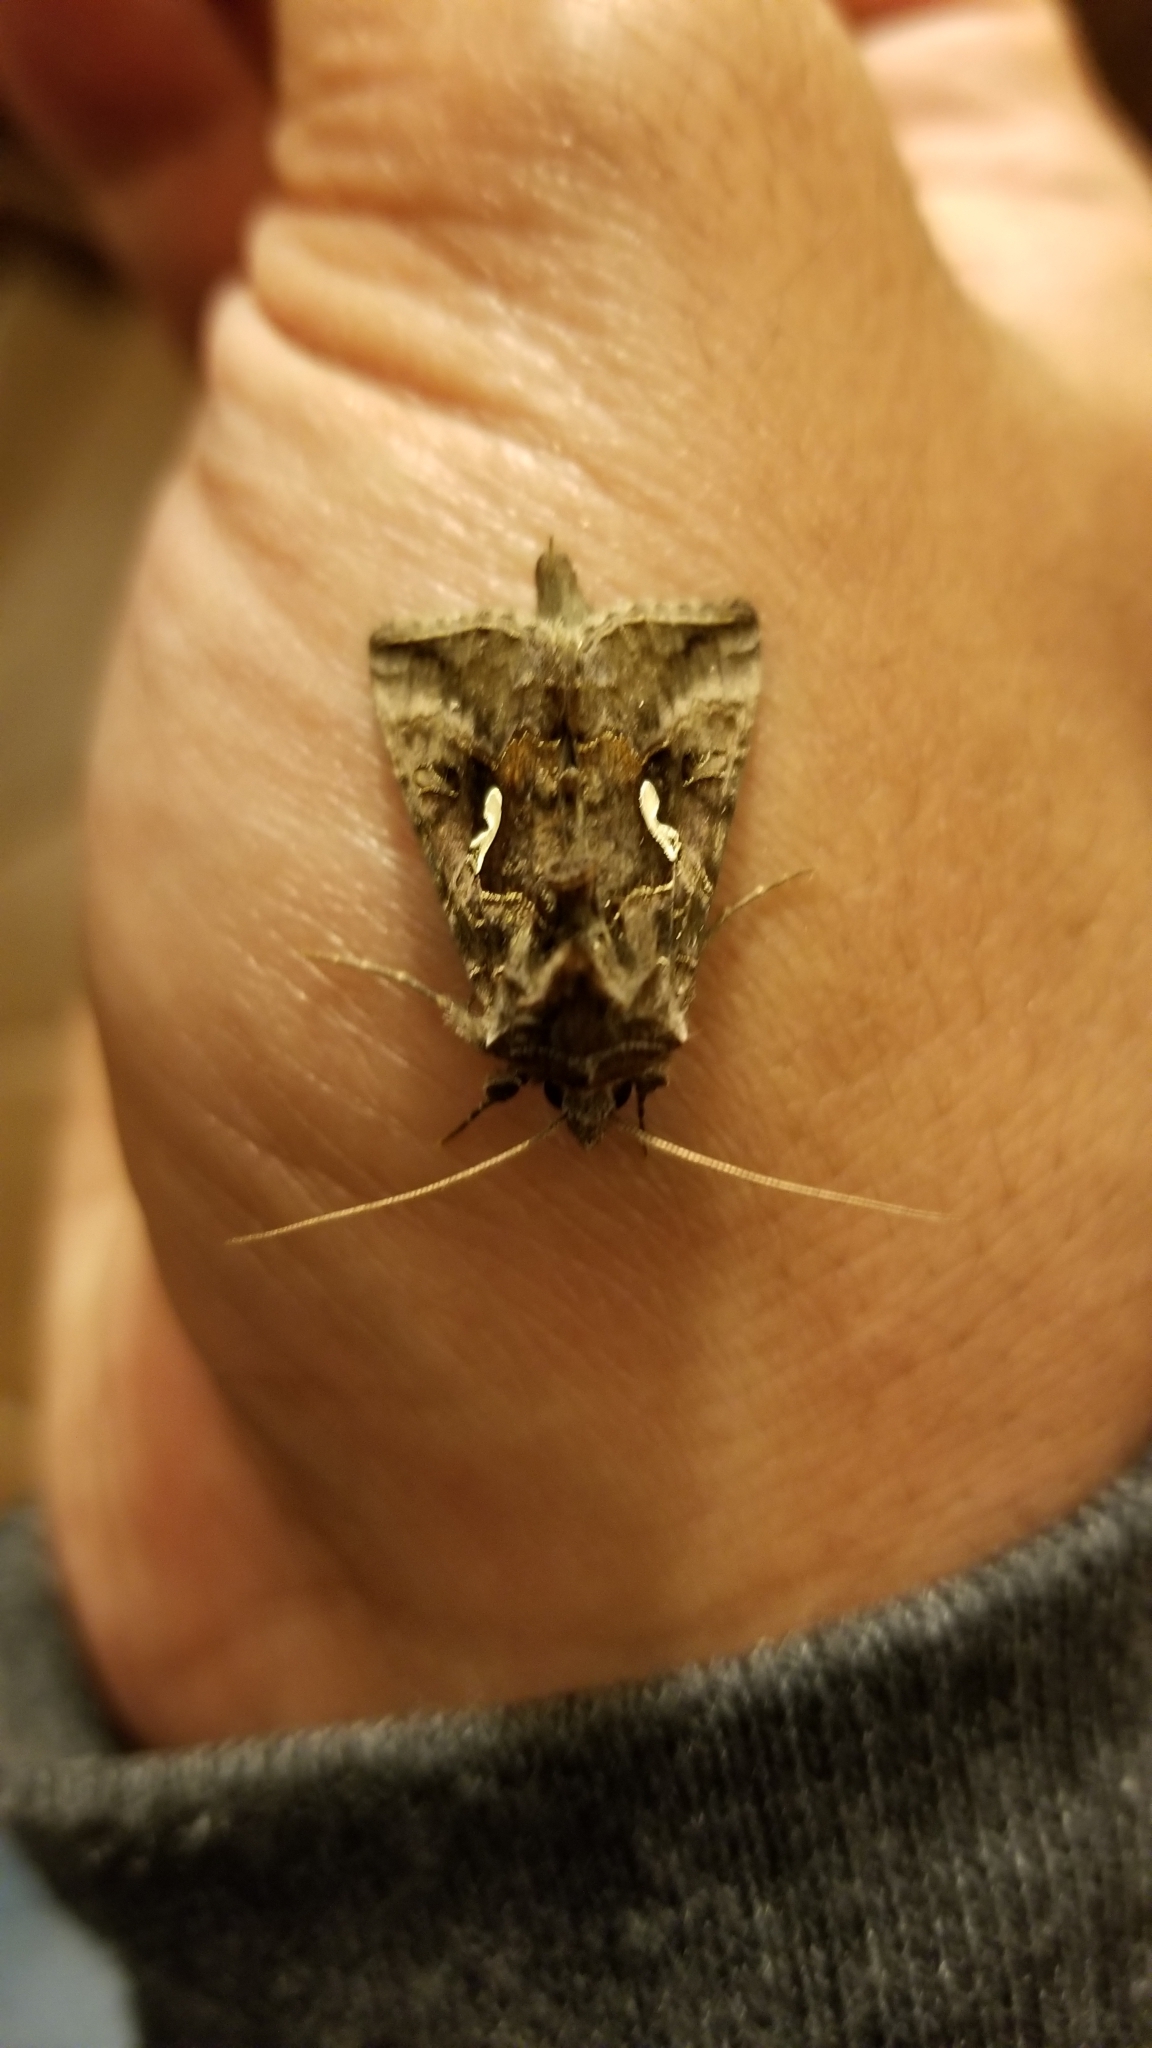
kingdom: Animalia
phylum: Arthropoda
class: Insecta
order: Lepidoptera
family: Noctuidae
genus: Autographa
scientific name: Autographa precationis
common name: Common looper moth
